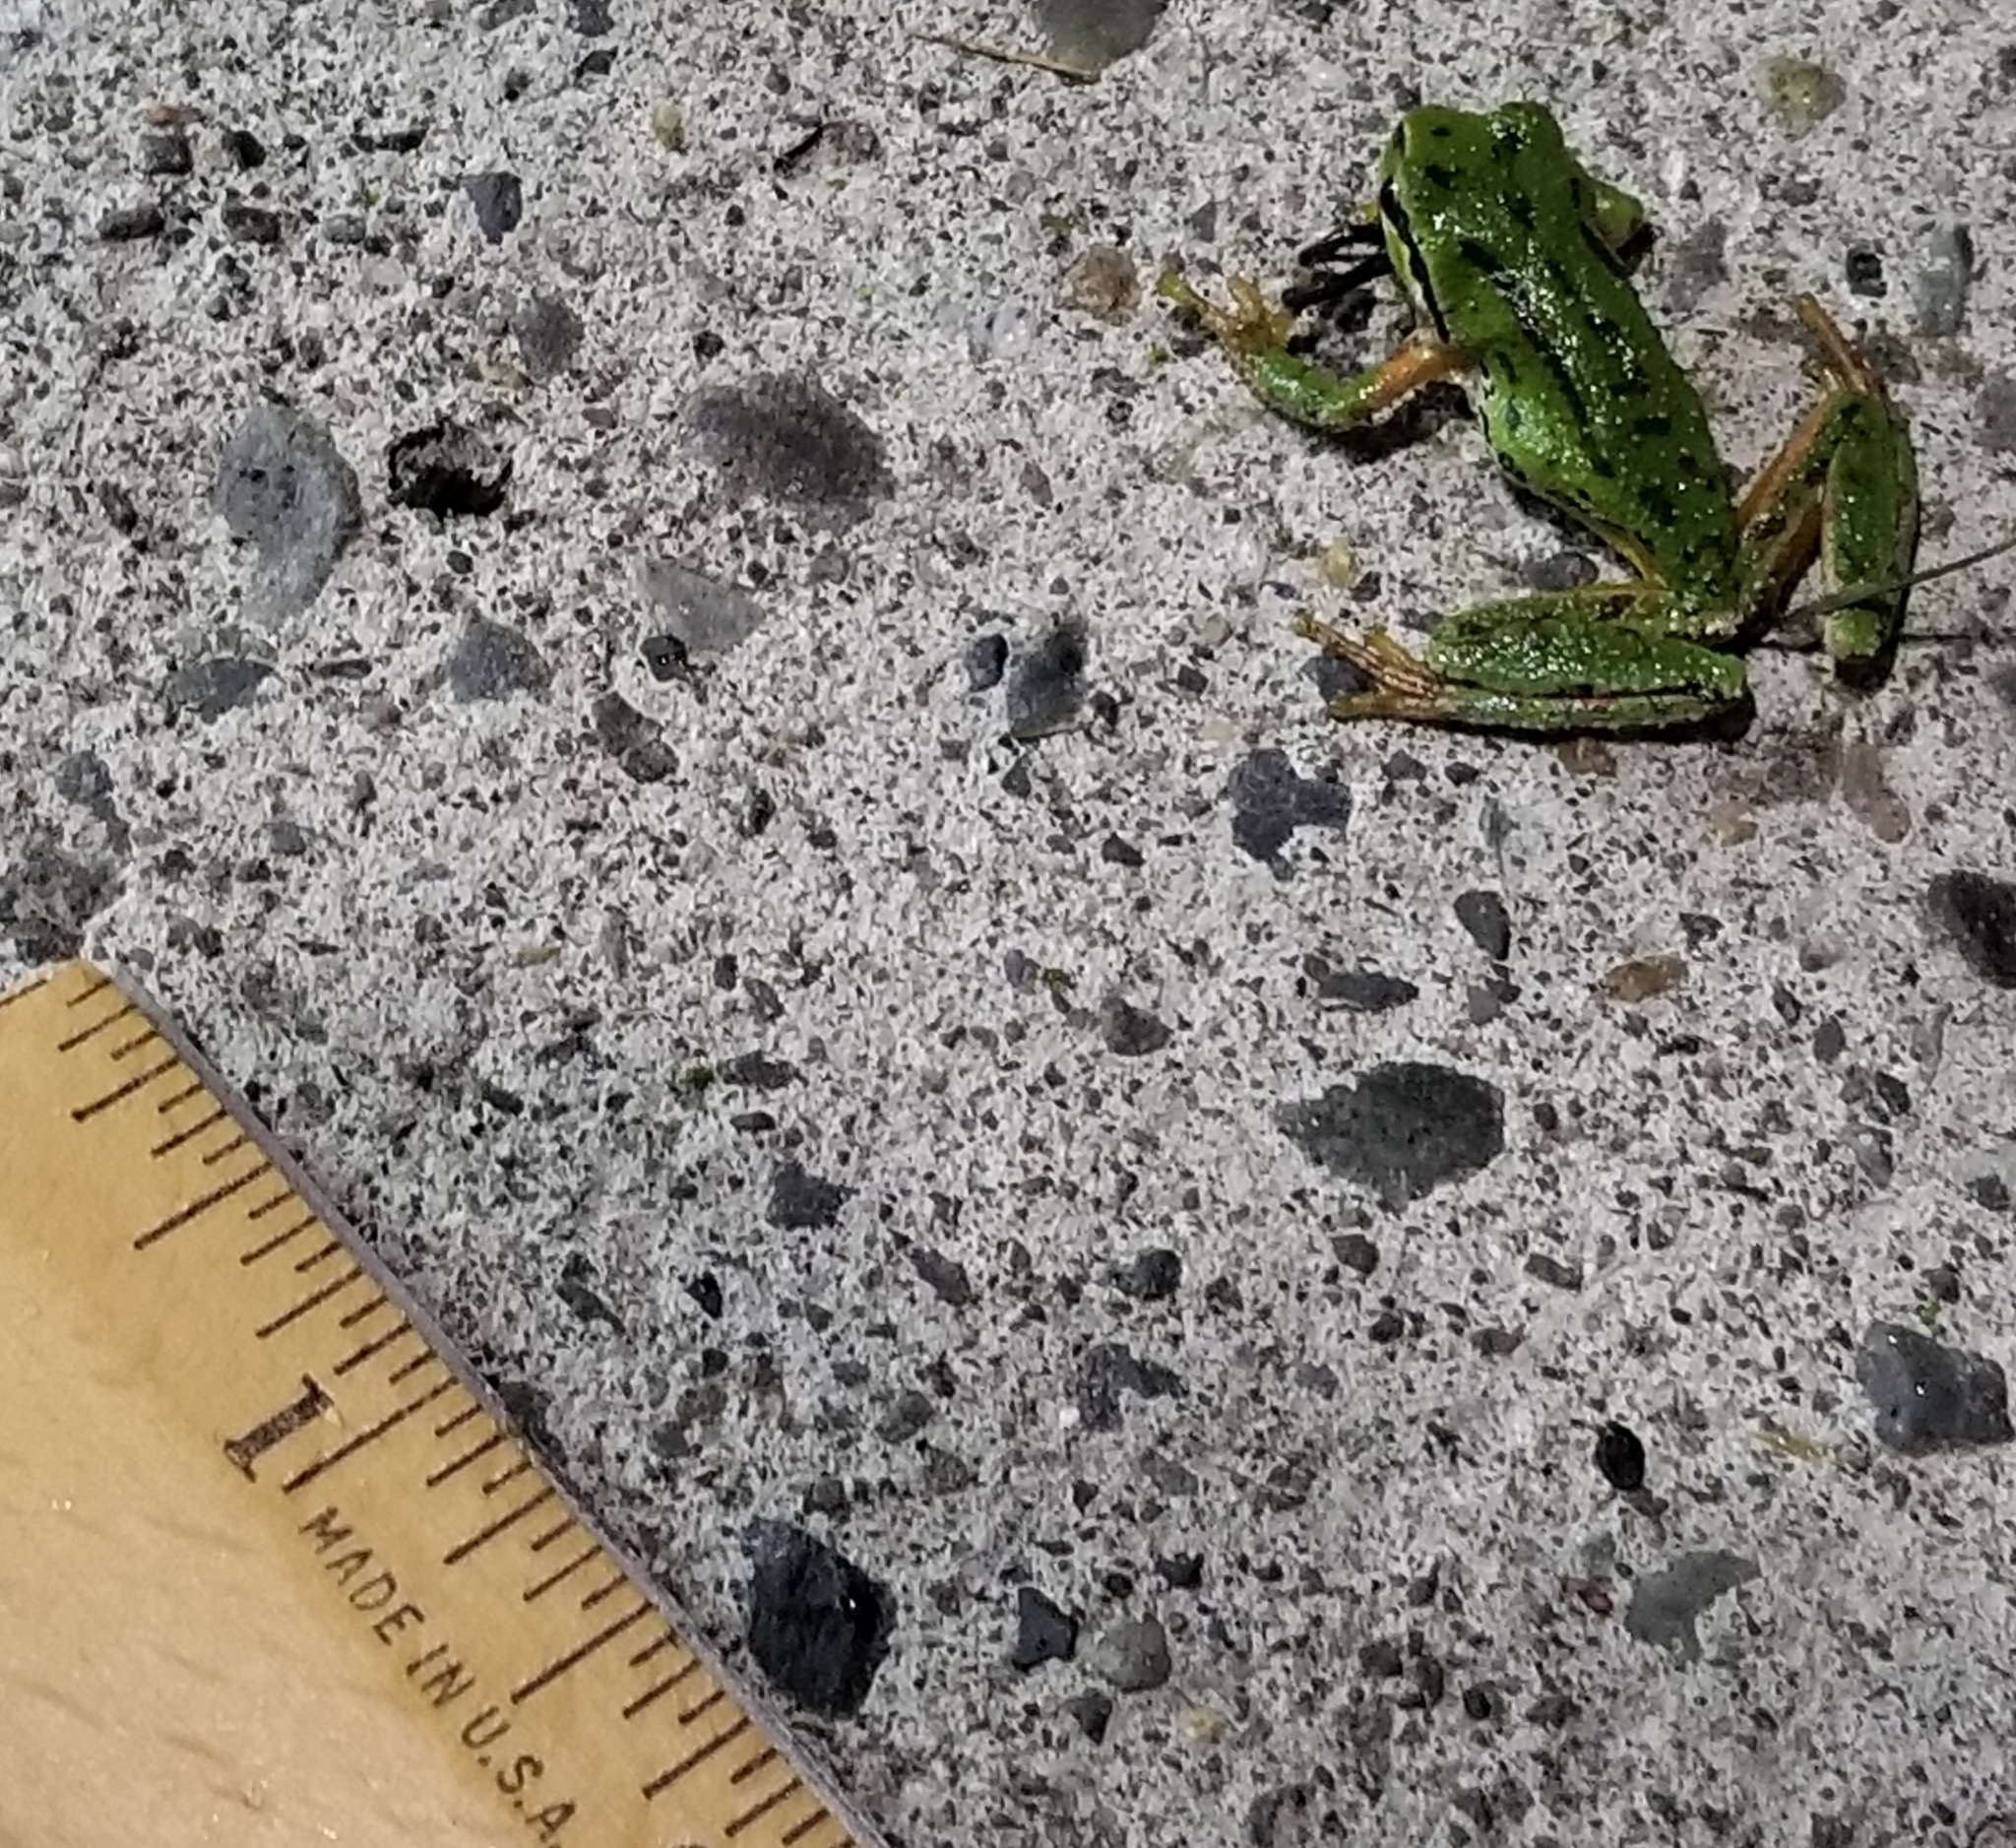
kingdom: Animalia
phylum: Chordata
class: Amphibia
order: Anura
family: Hylidae
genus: Pseudacris
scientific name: Pseudacris regilla
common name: Pacific chorus frog
